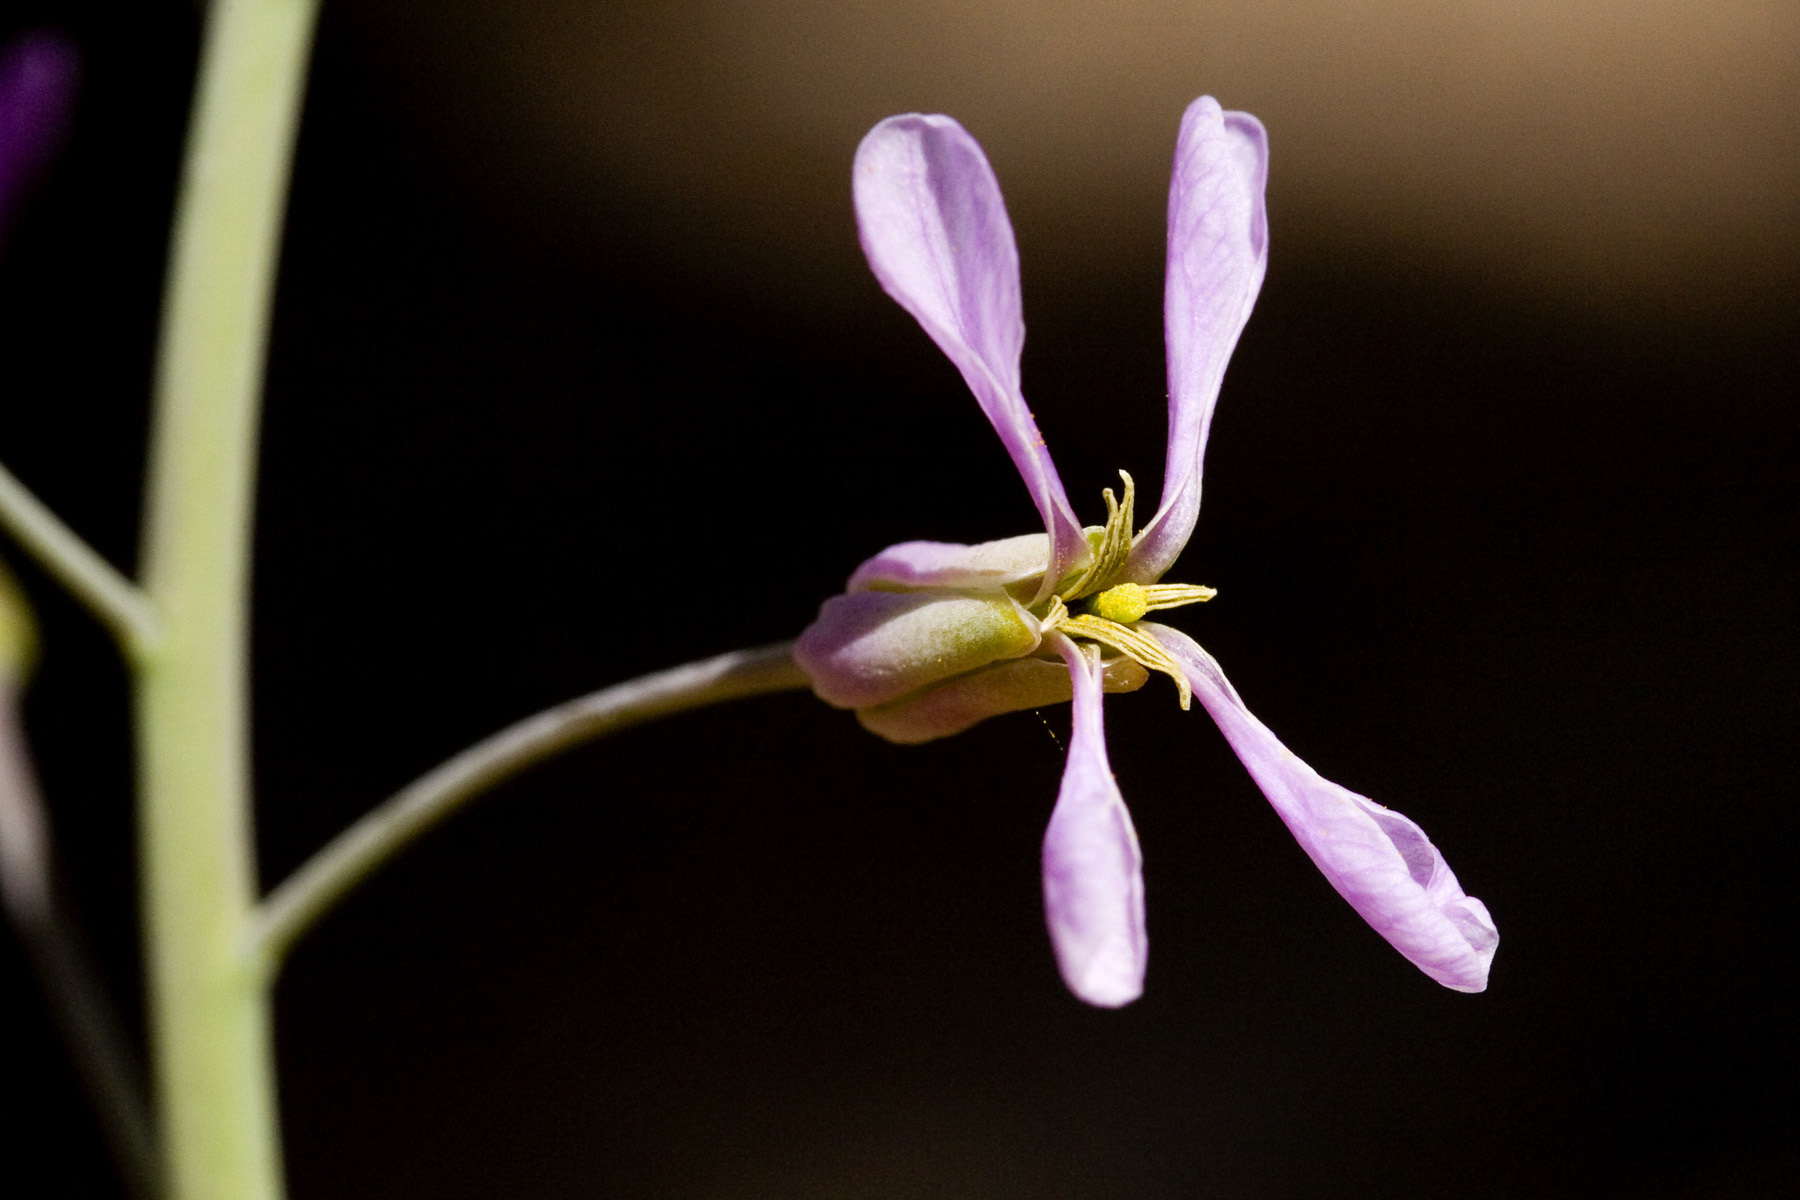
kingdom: Plantae
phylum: Tracheophyta
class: Magnoliopsida
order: Brassicales
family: Brassicaceae
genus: Hesperidanthus
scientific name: Hesperidanthus linearifolius
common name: Slim-leaf plains mustard
